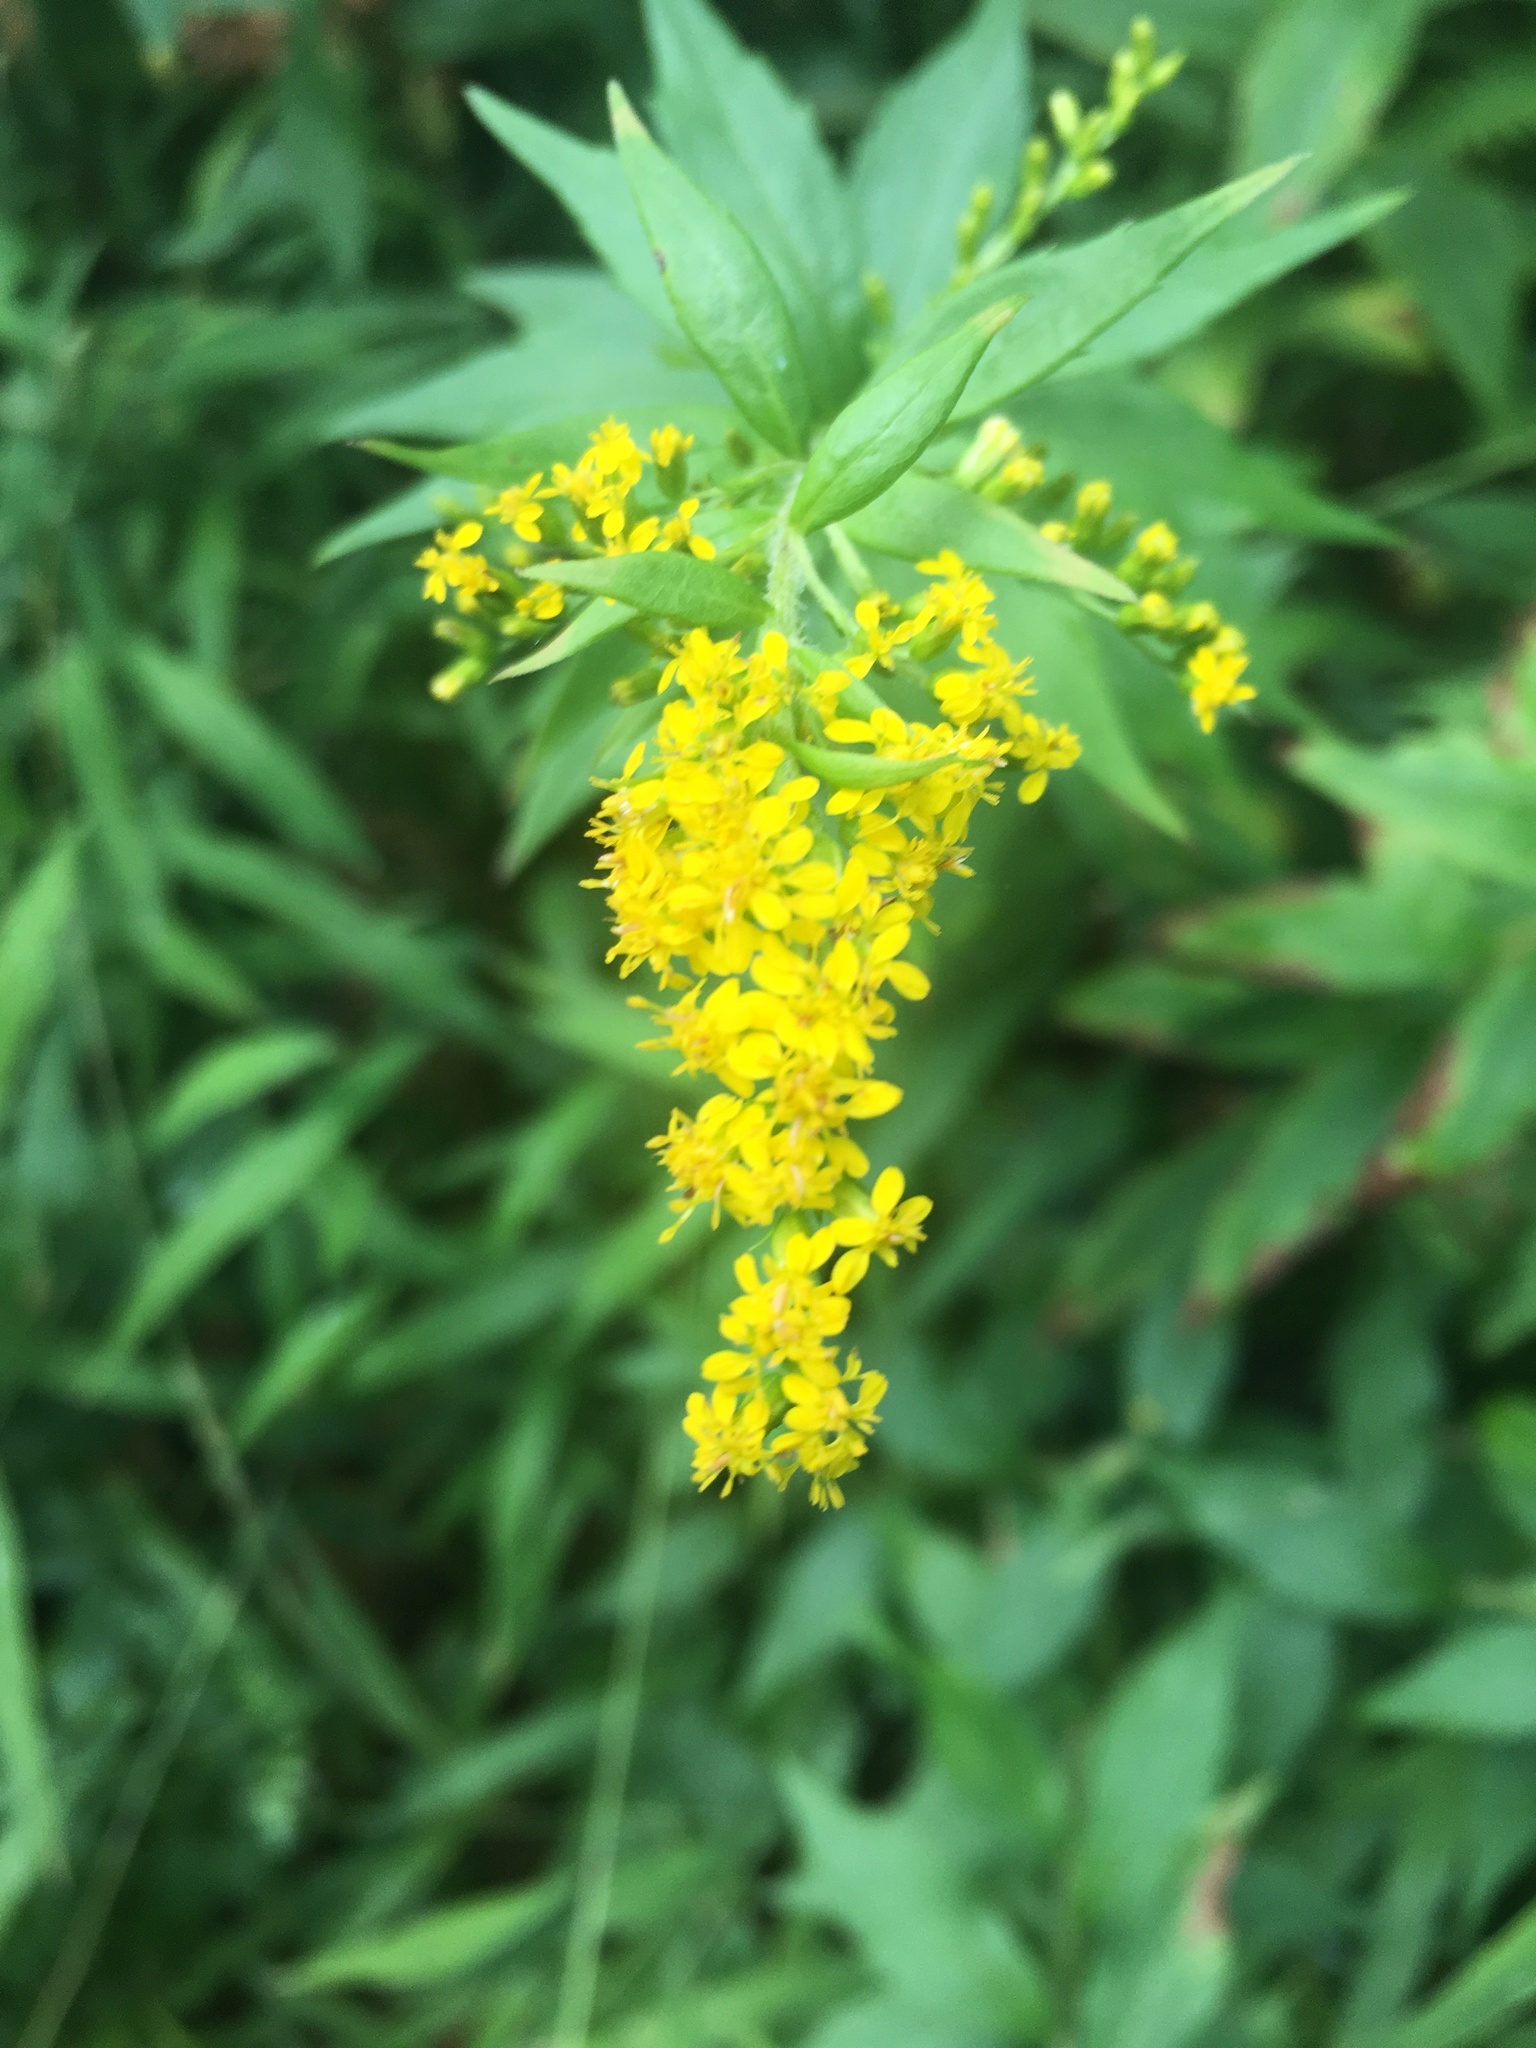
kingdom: Plantae
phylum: Tracheophyta
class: Magnoliopsida
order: Asterales
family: Asteraceae
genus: Solidago
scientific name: Solidago rugosa
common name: Rough-stemmed goldenrod
